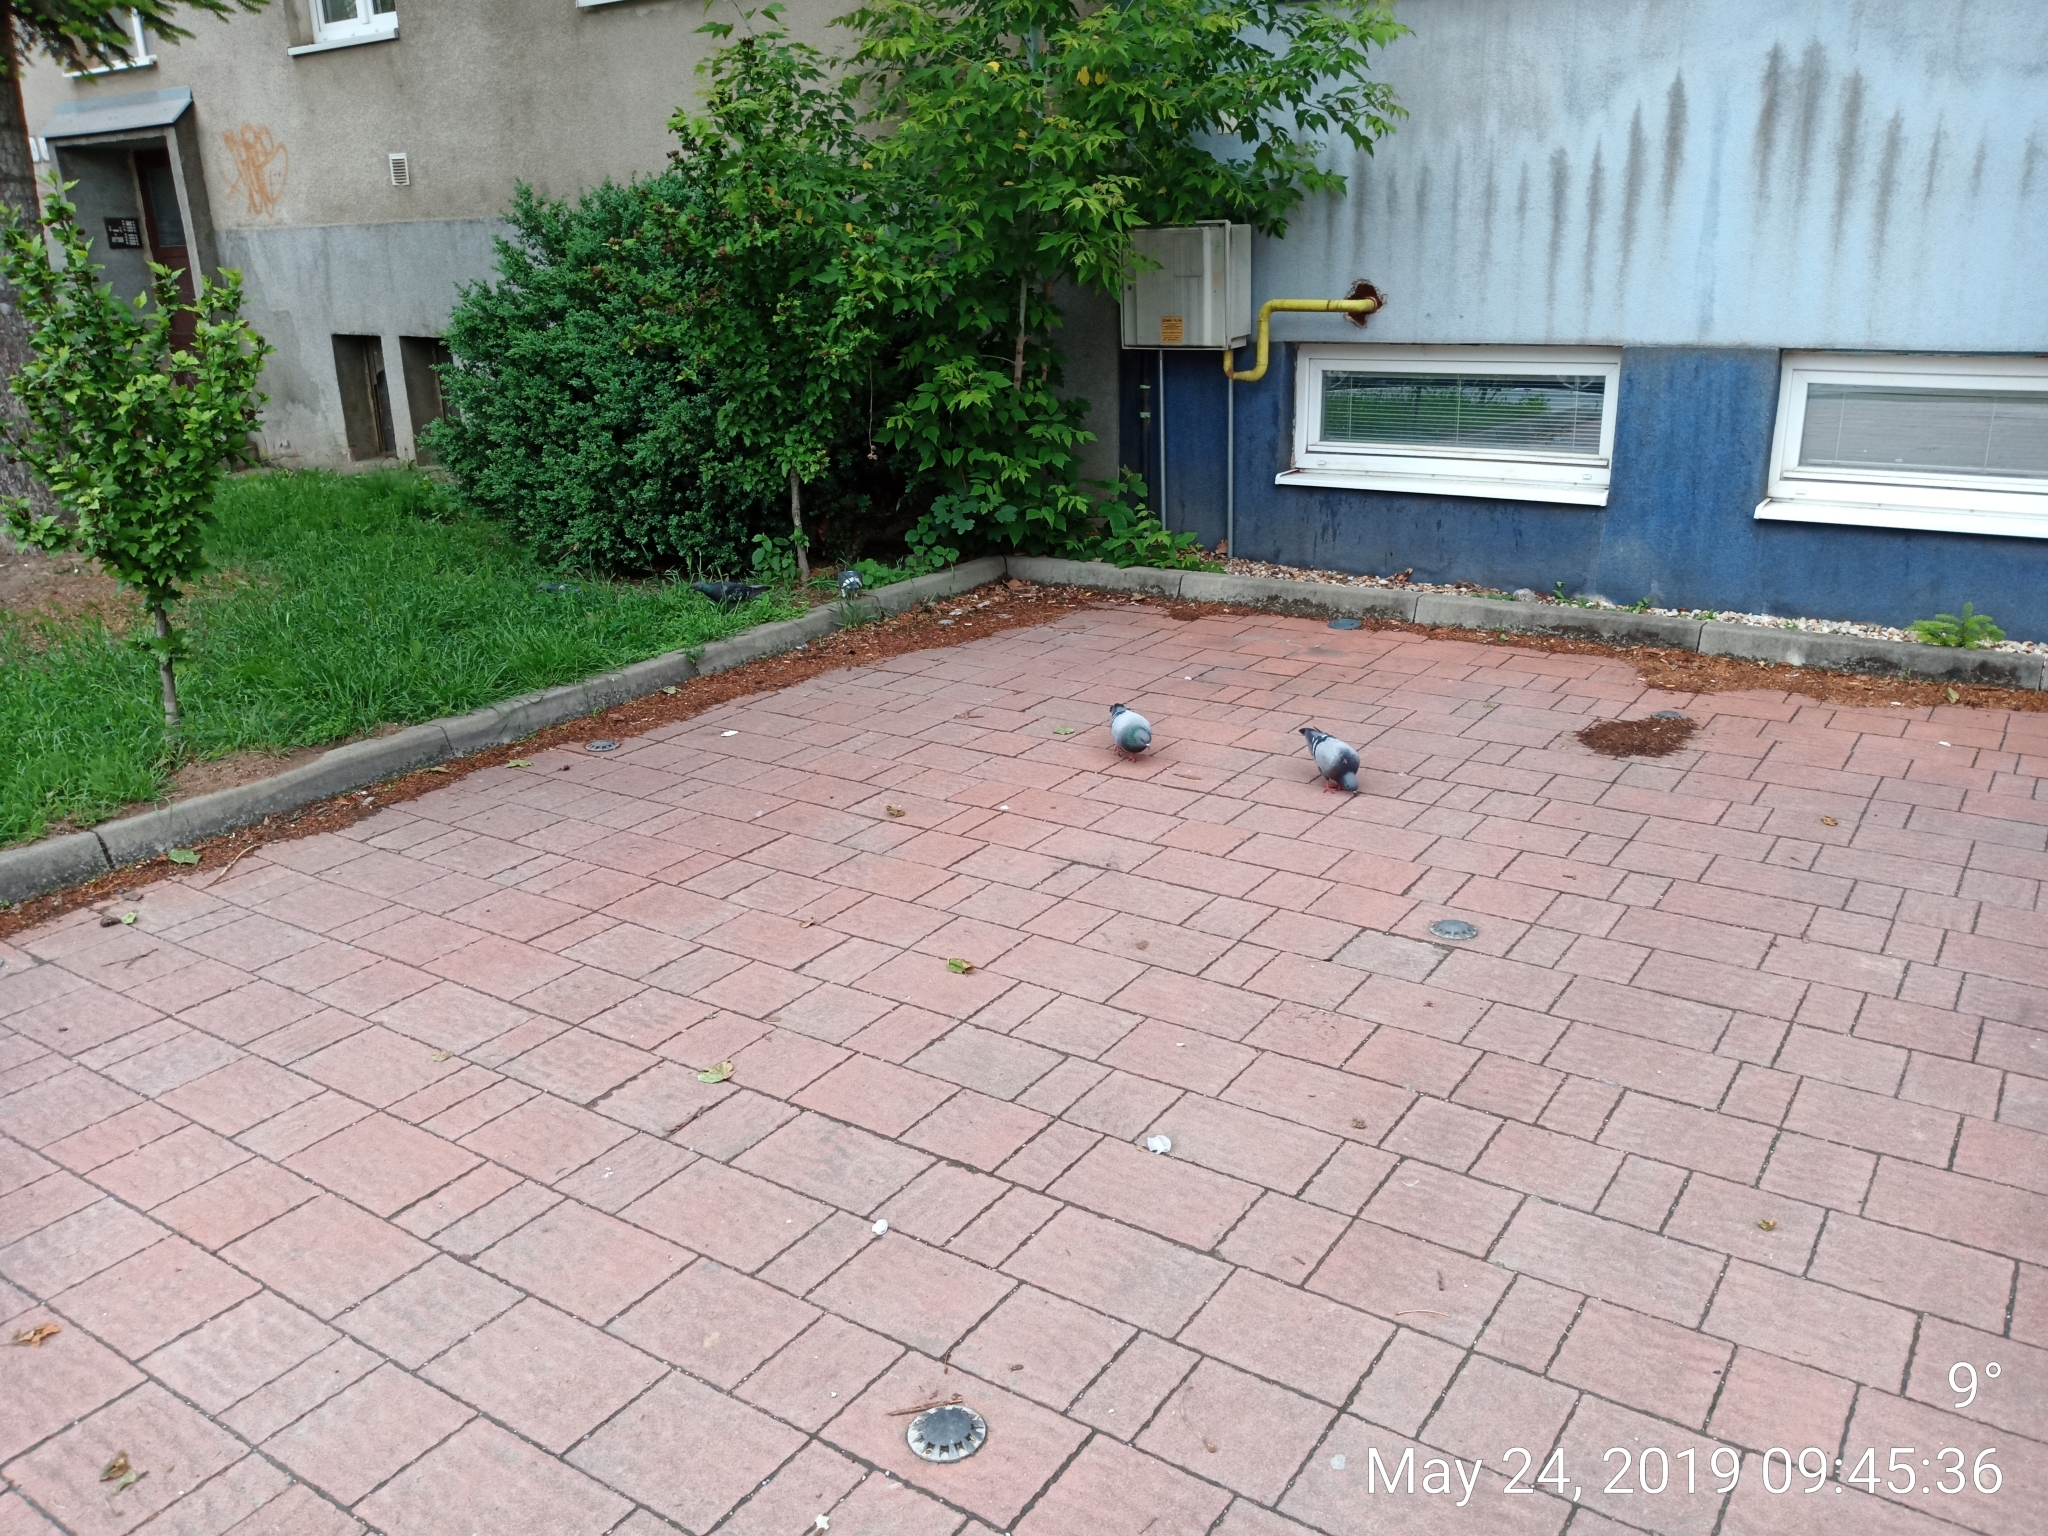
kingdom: Animalia
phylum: Chordata
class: Aves
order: Columbiformes
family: Columbidae
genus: Columba
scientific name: Columba livia
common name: Rock pigeon
